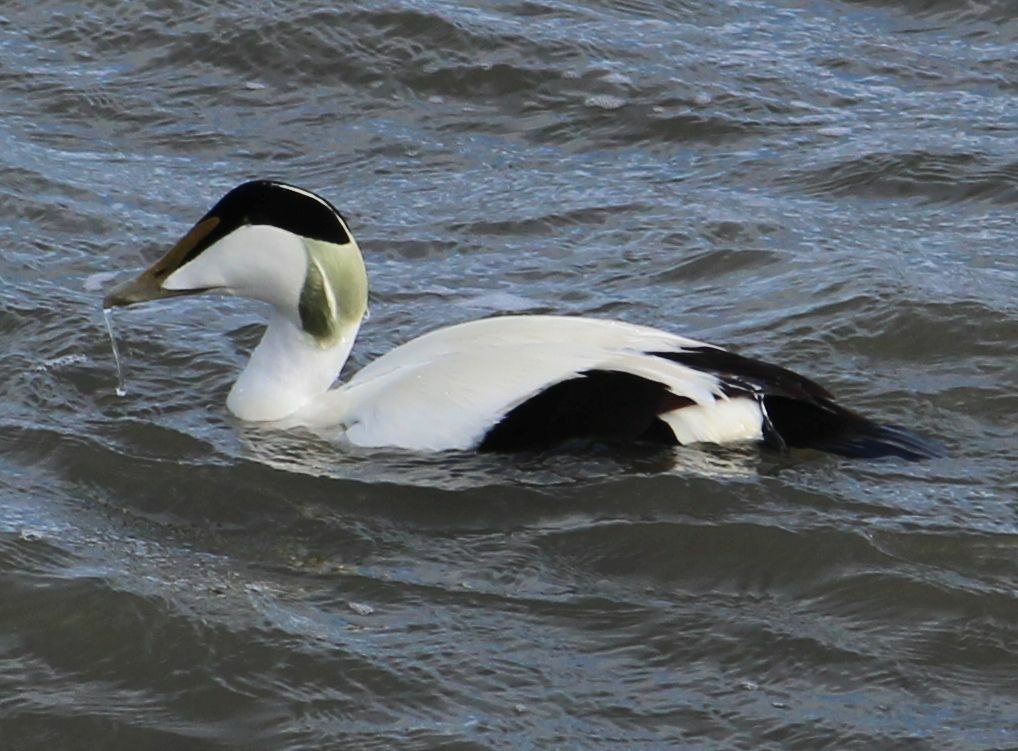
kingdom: Animalia
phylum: Chordata
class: Aves
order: Anseriformes
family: Anatidae
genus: Somateria
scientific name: Somateria mollissima
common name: Common eider
